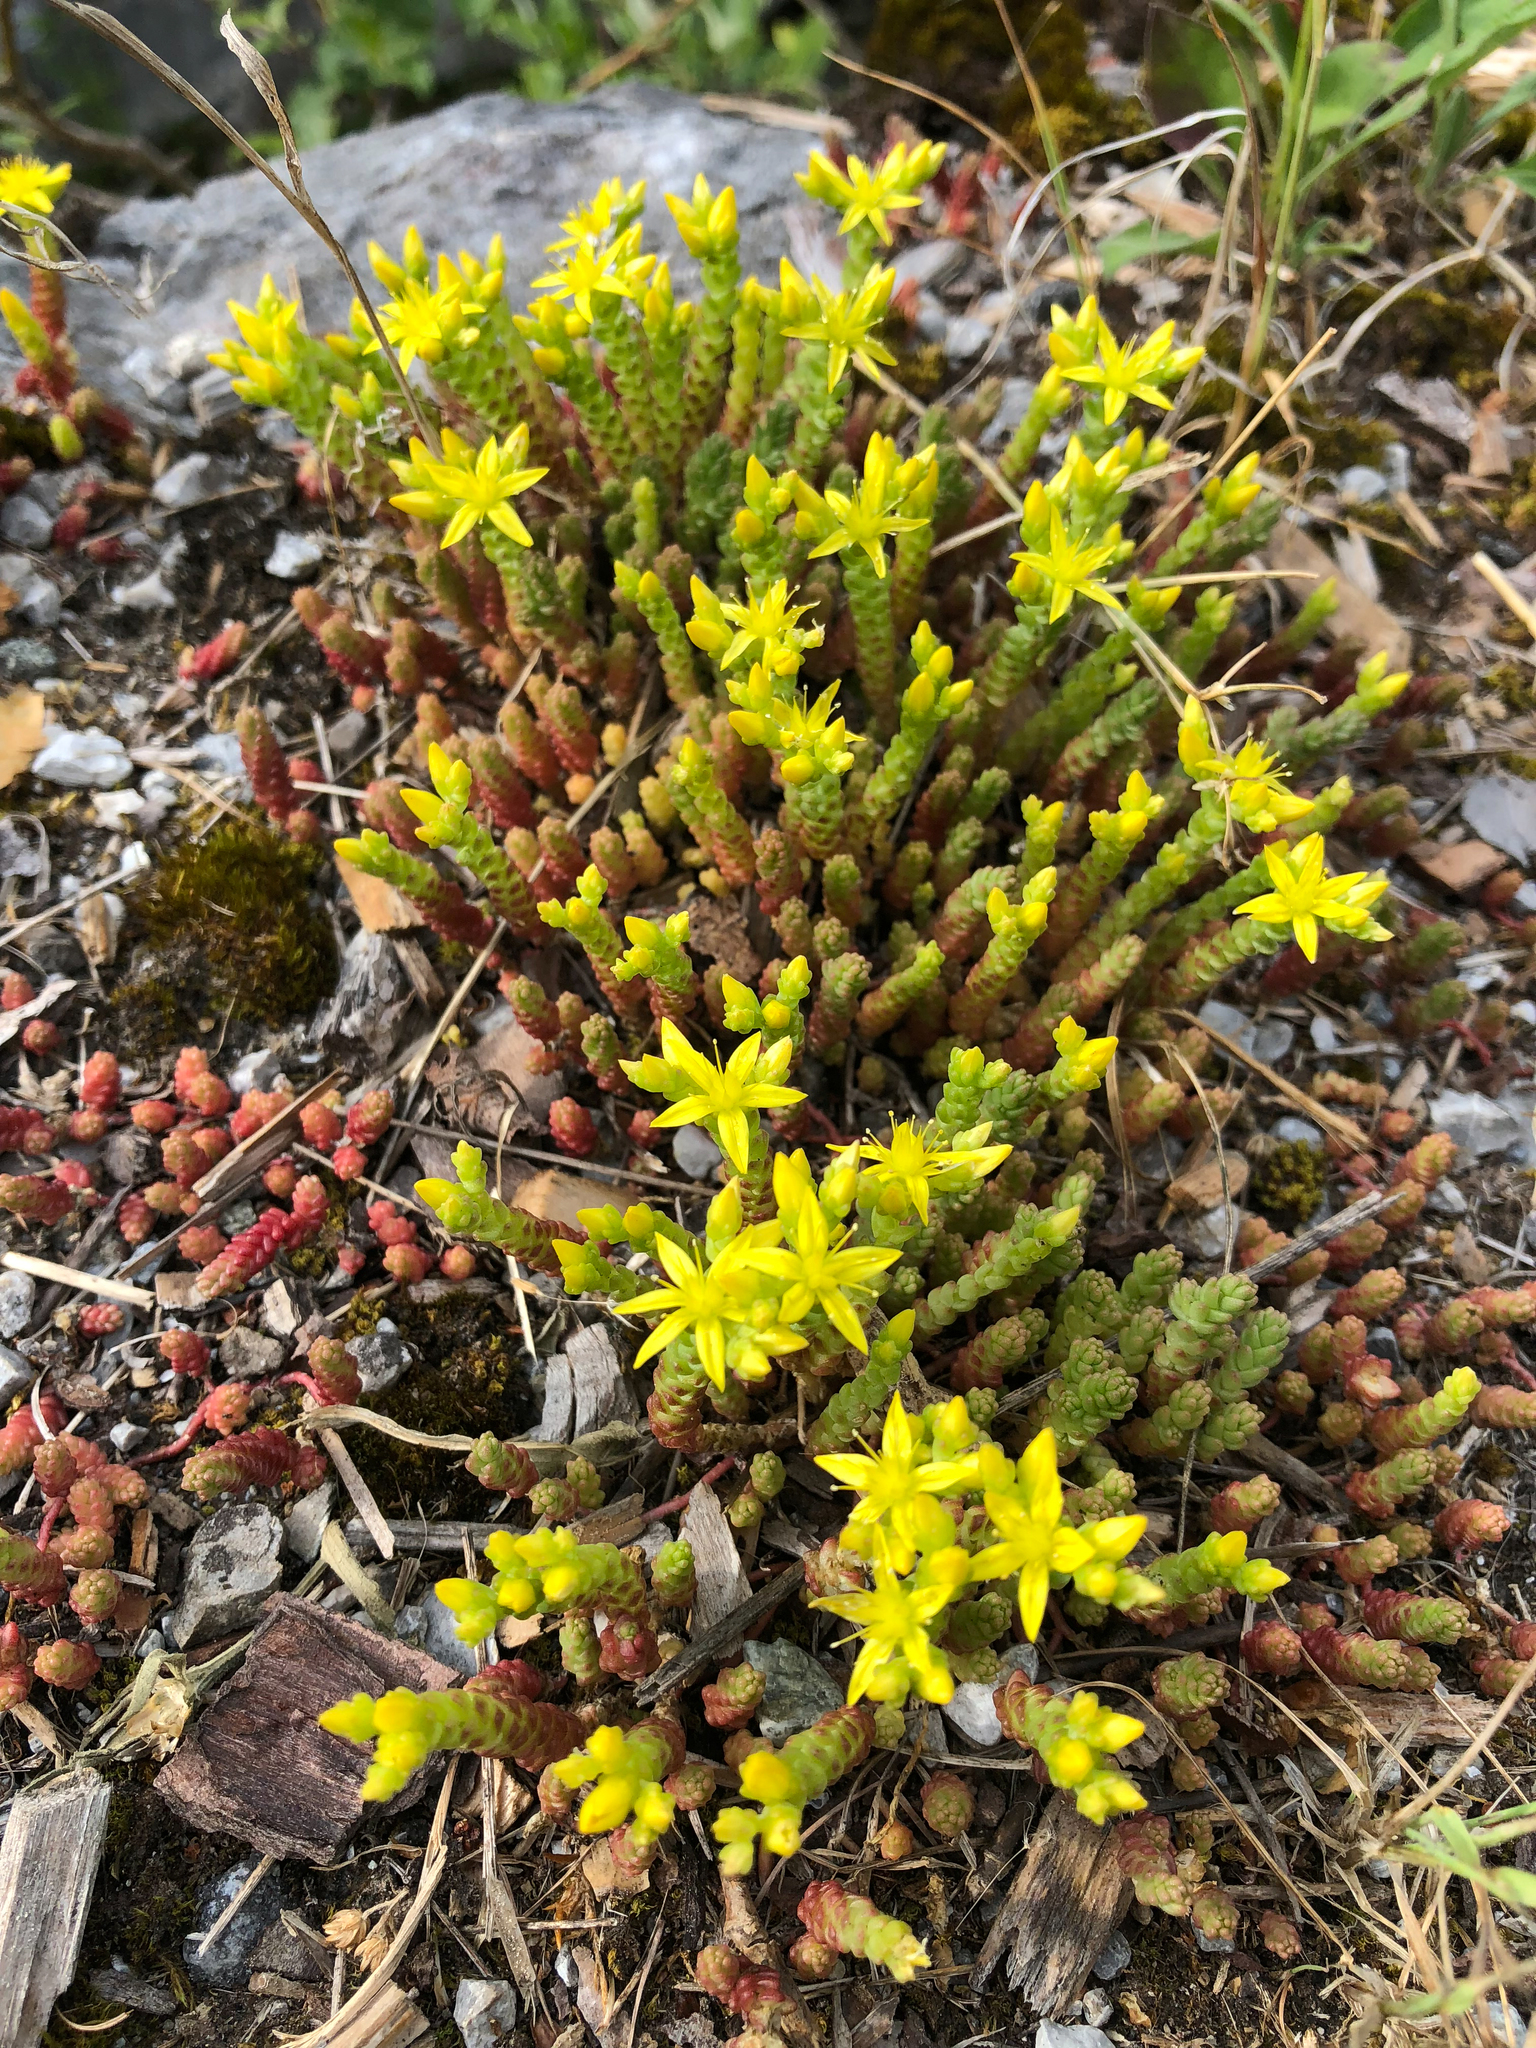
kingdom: Plantae
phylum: Tracheophyta
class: Magnoliopsida
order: Saxifragales
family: Crassulaceae
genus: Sedum
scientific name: Sedum acre
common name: Biting stonecrop
